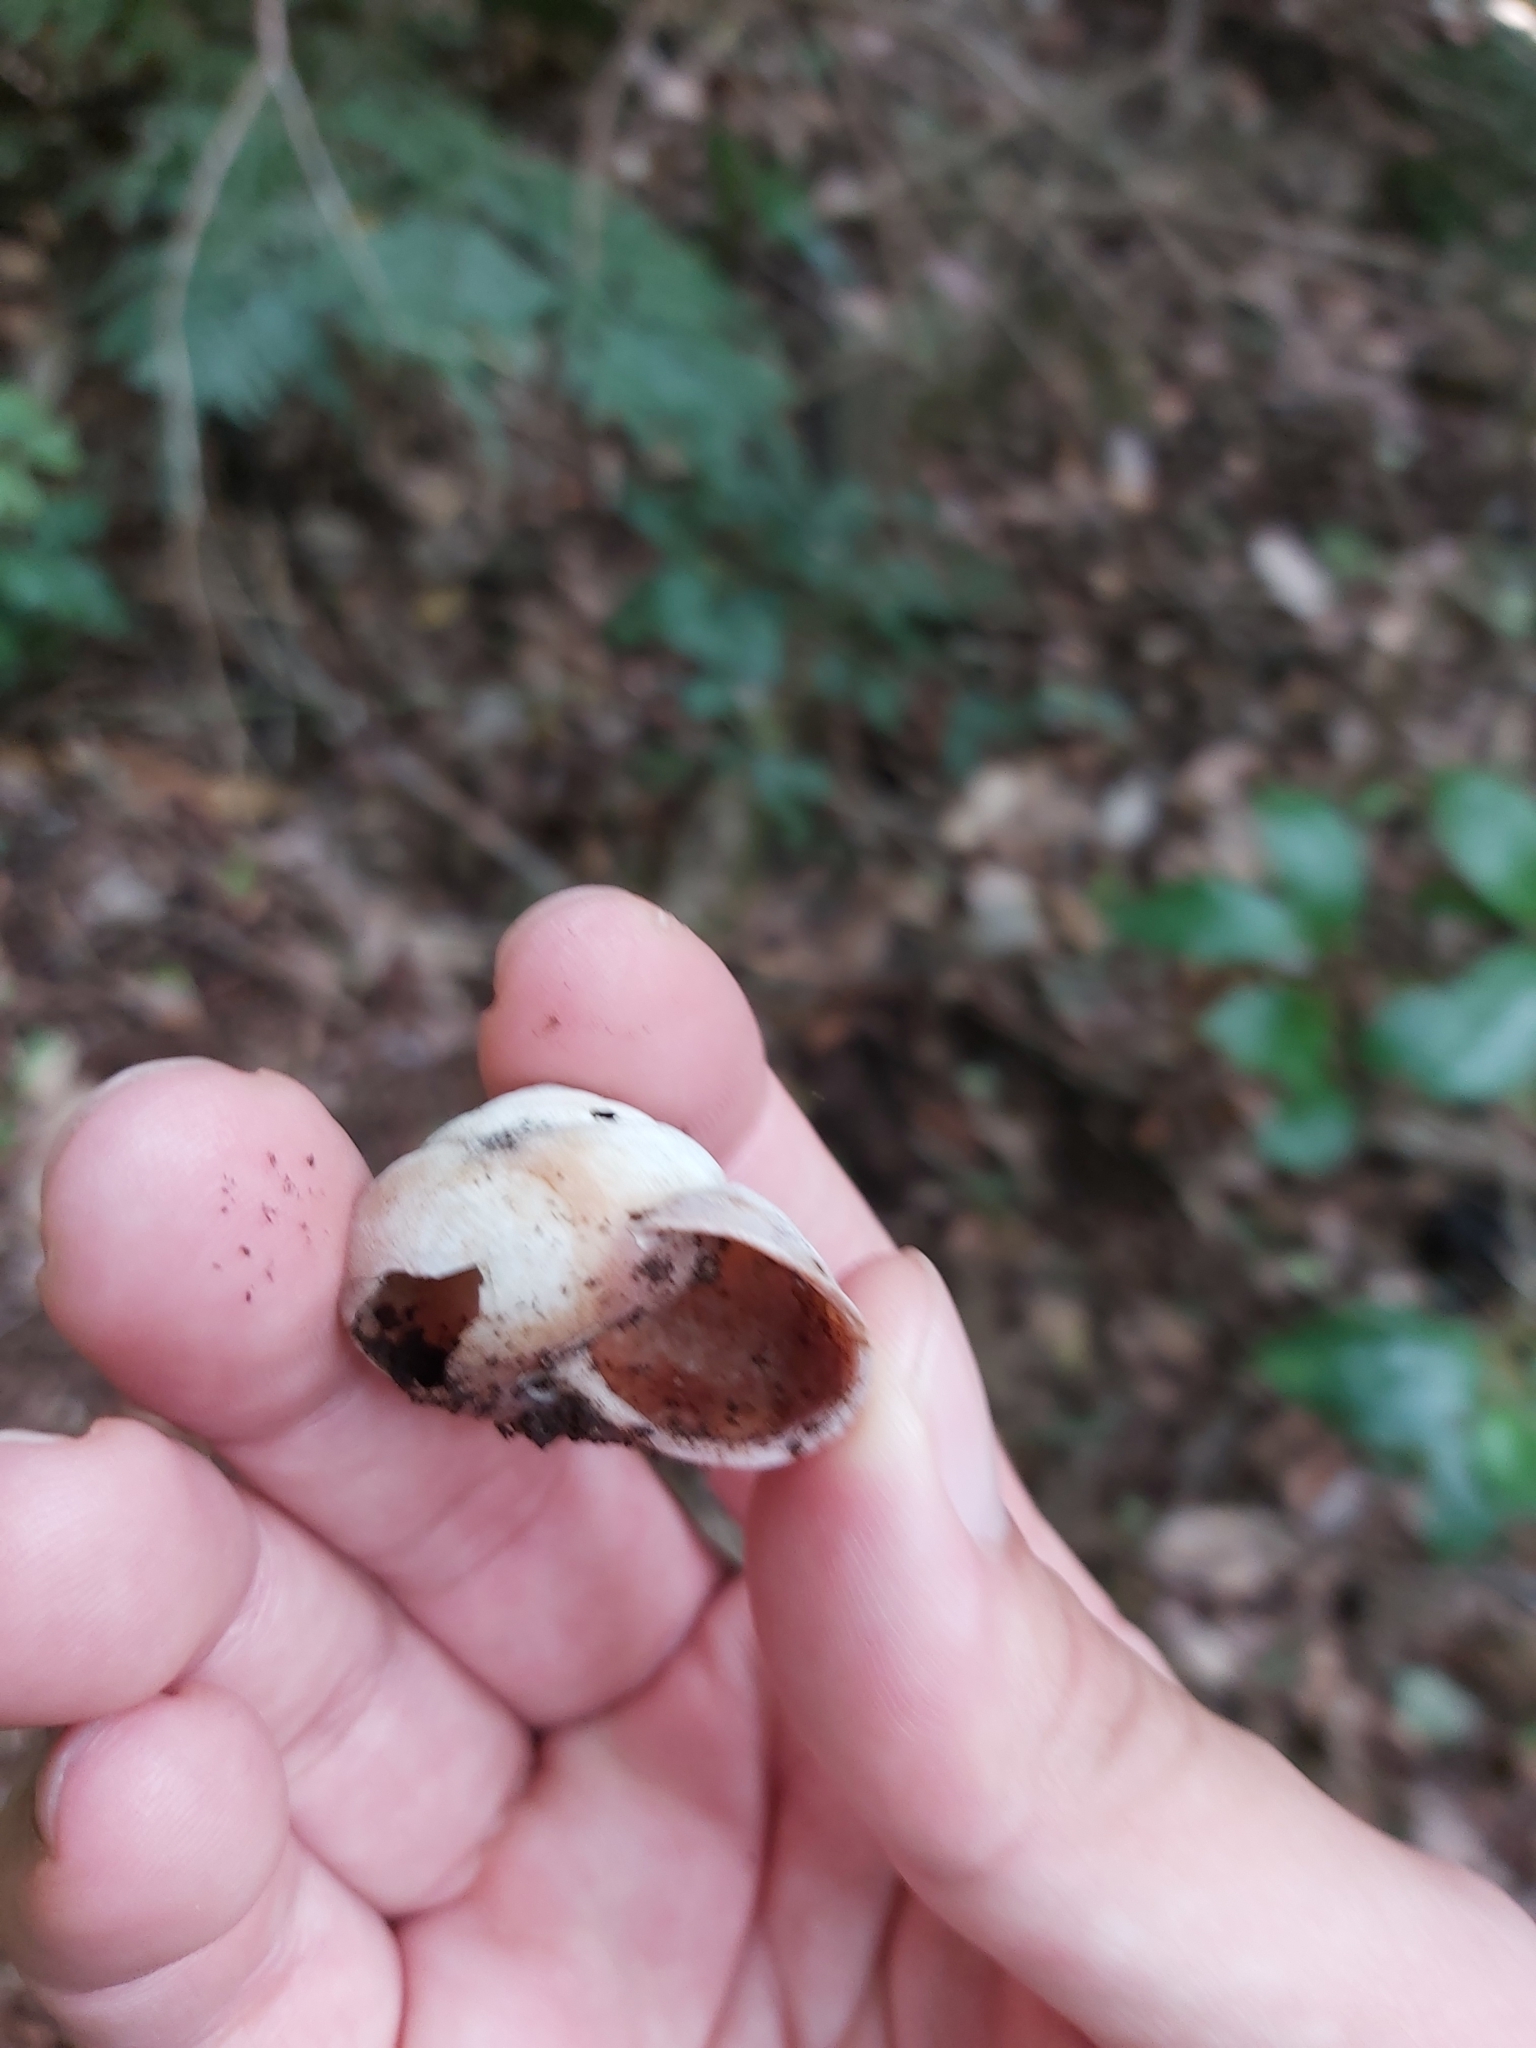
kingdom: Animalia
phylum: Mollusca
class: Gastropoda
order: Stylommatophora
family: Camaenidae
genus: Sauroconcha
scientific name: Sauroconcha gulosa
